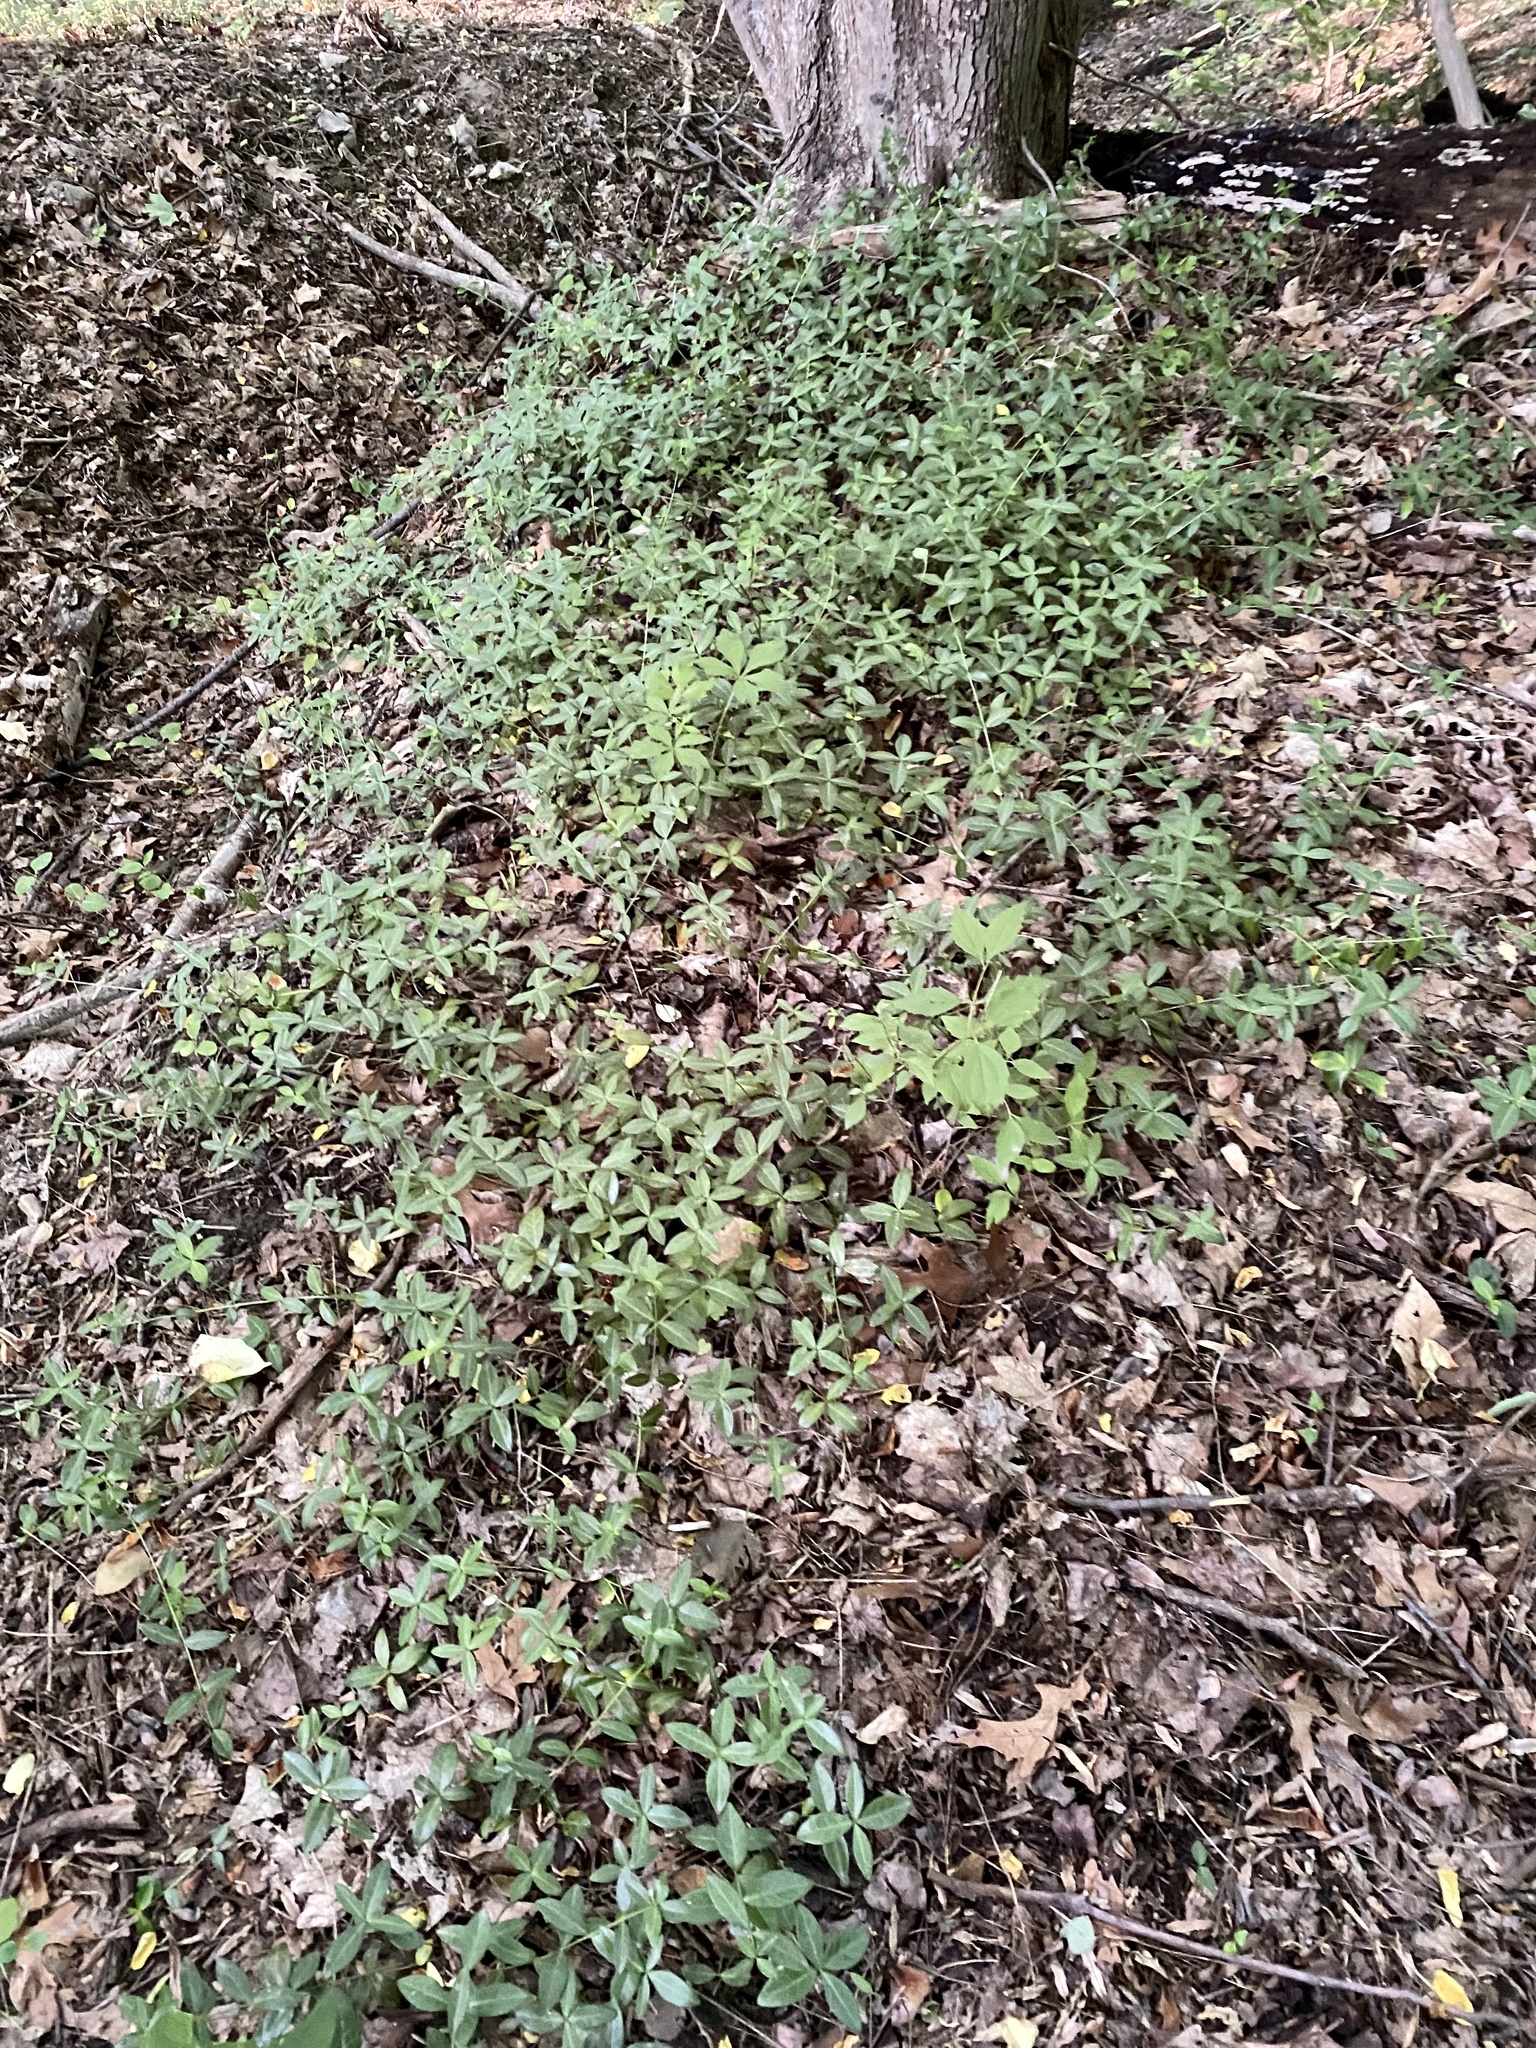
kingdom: Plantae
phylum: Tracheophyta
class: Magnoliopsida
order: Gentianales
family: Apocynaceae
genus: Vinca
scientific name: Vinca minor
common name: Lesser periwinkle
